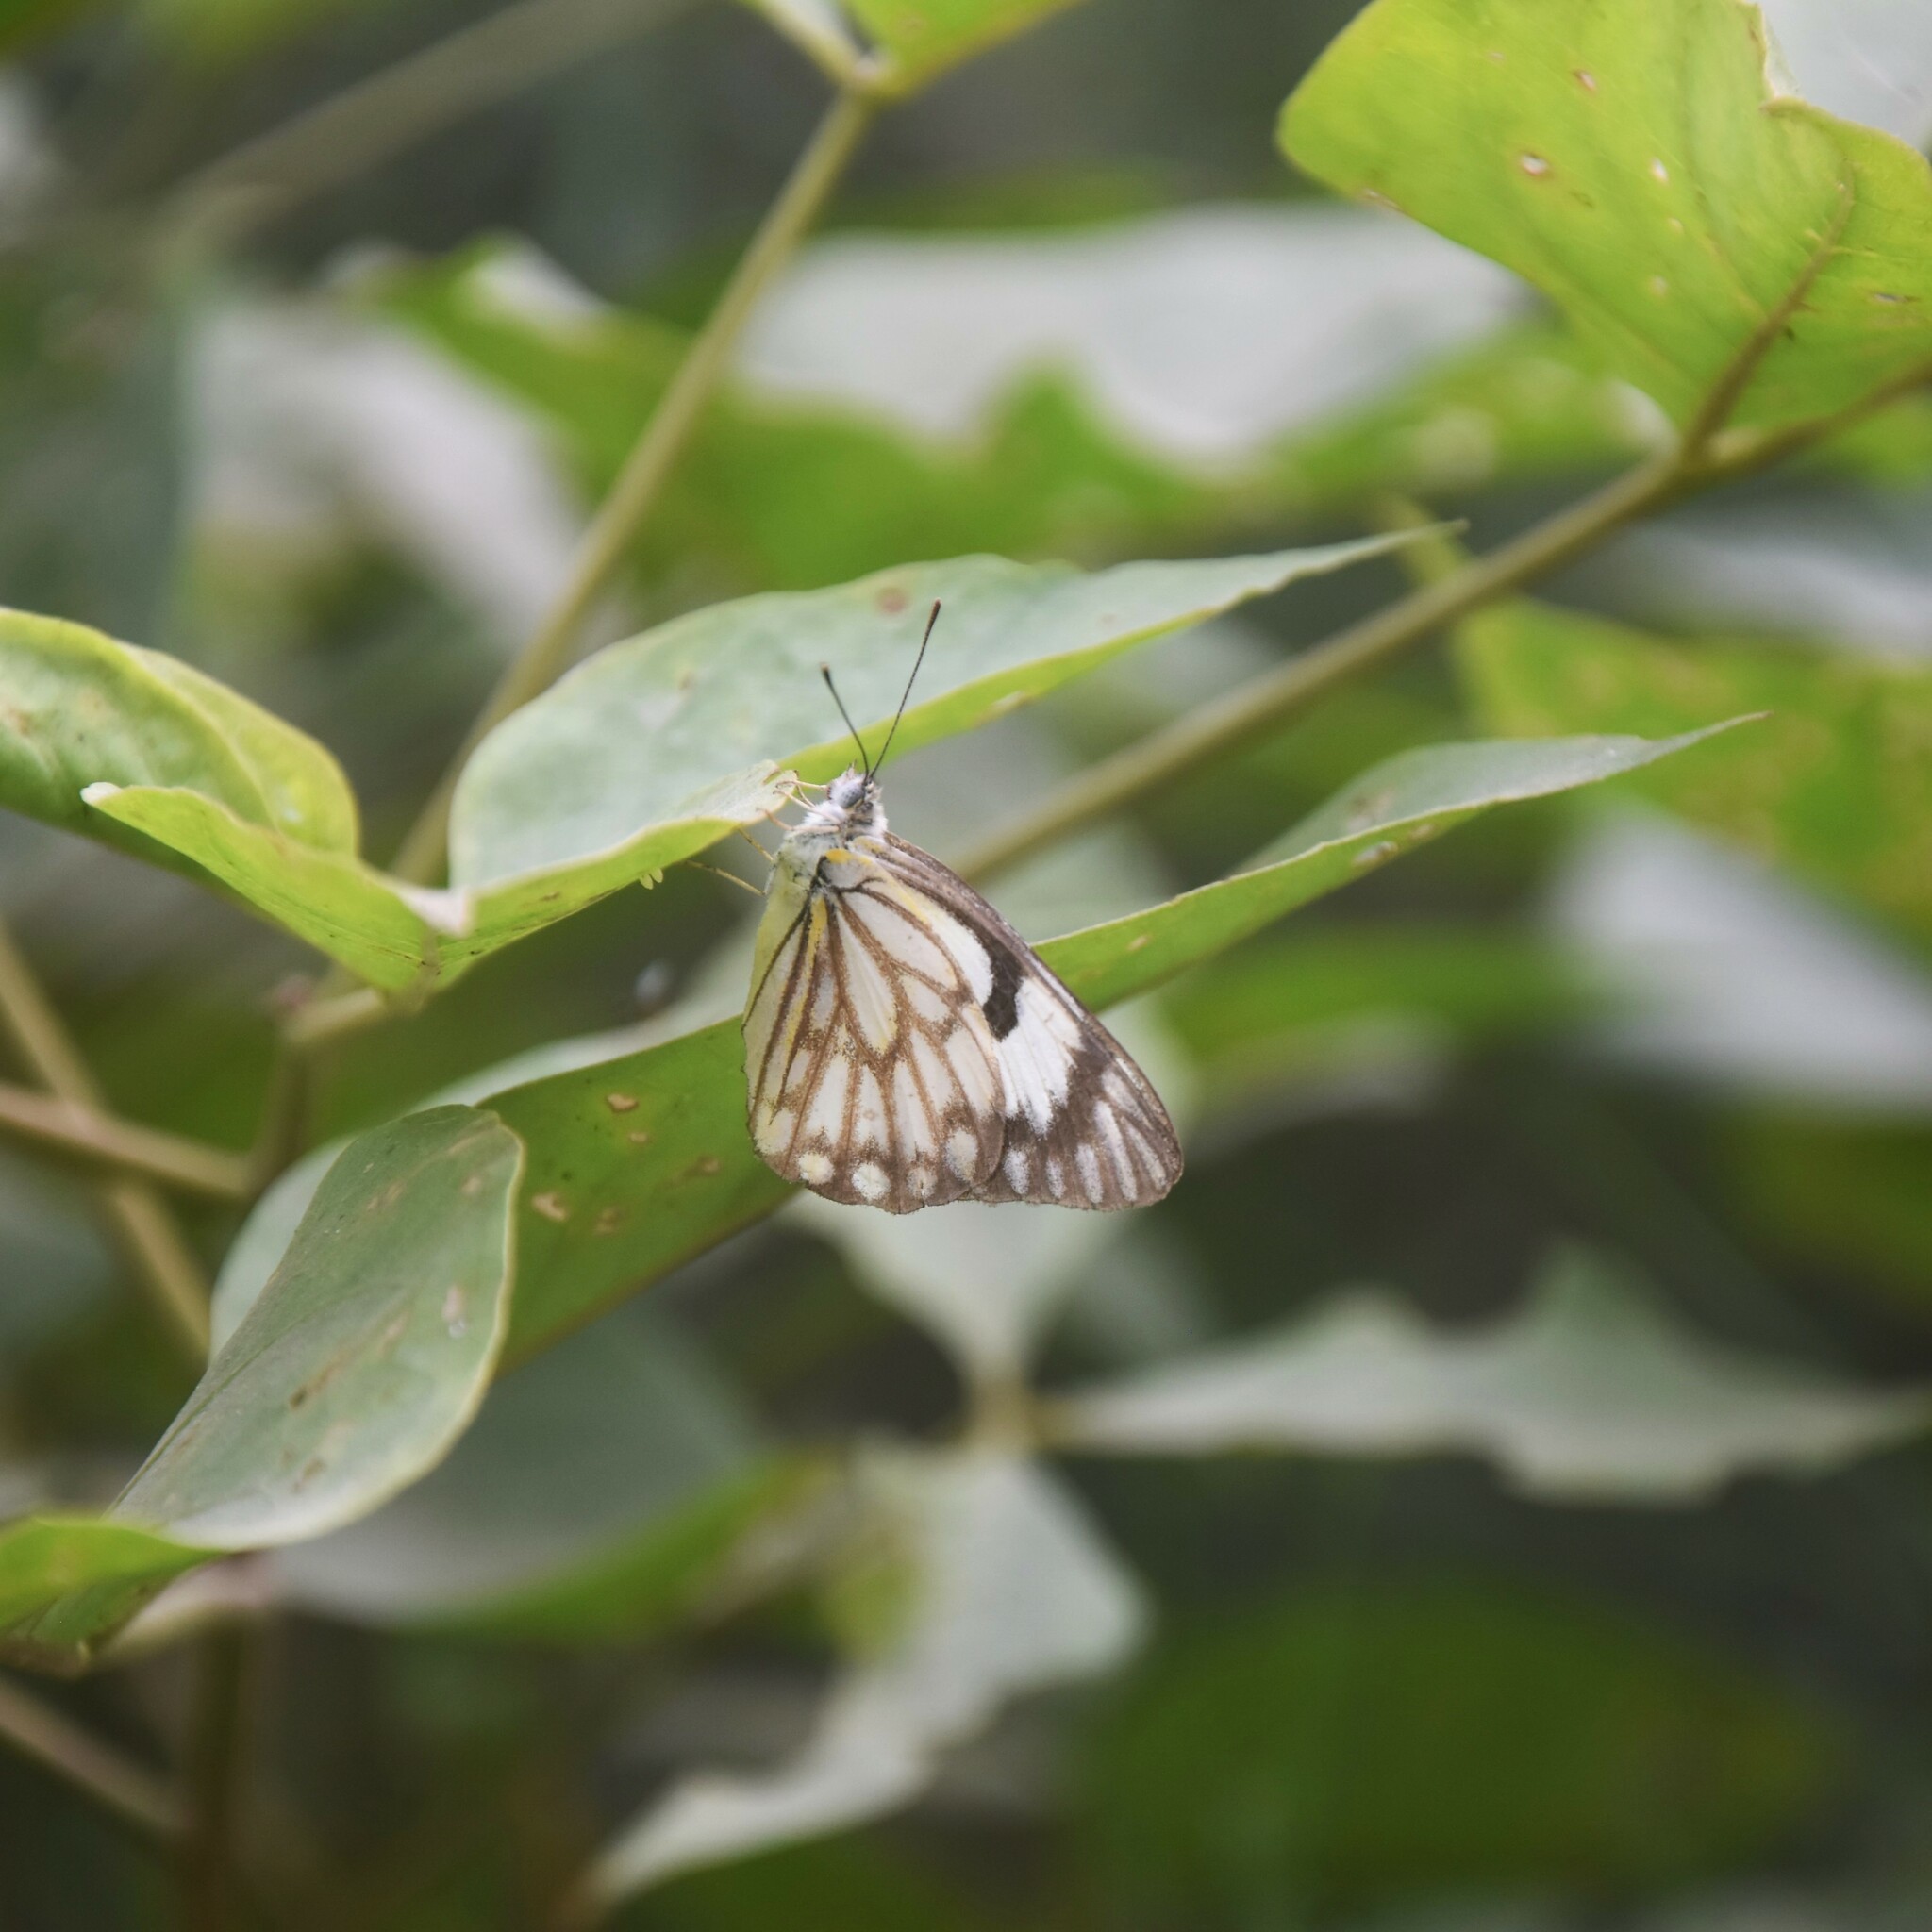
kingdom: Animalia
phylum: Arthropoda
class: Insecta
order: Lepidoptera
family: Pieridae
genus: Belenois
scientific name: Belenois aurota
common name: Brown-veined white
